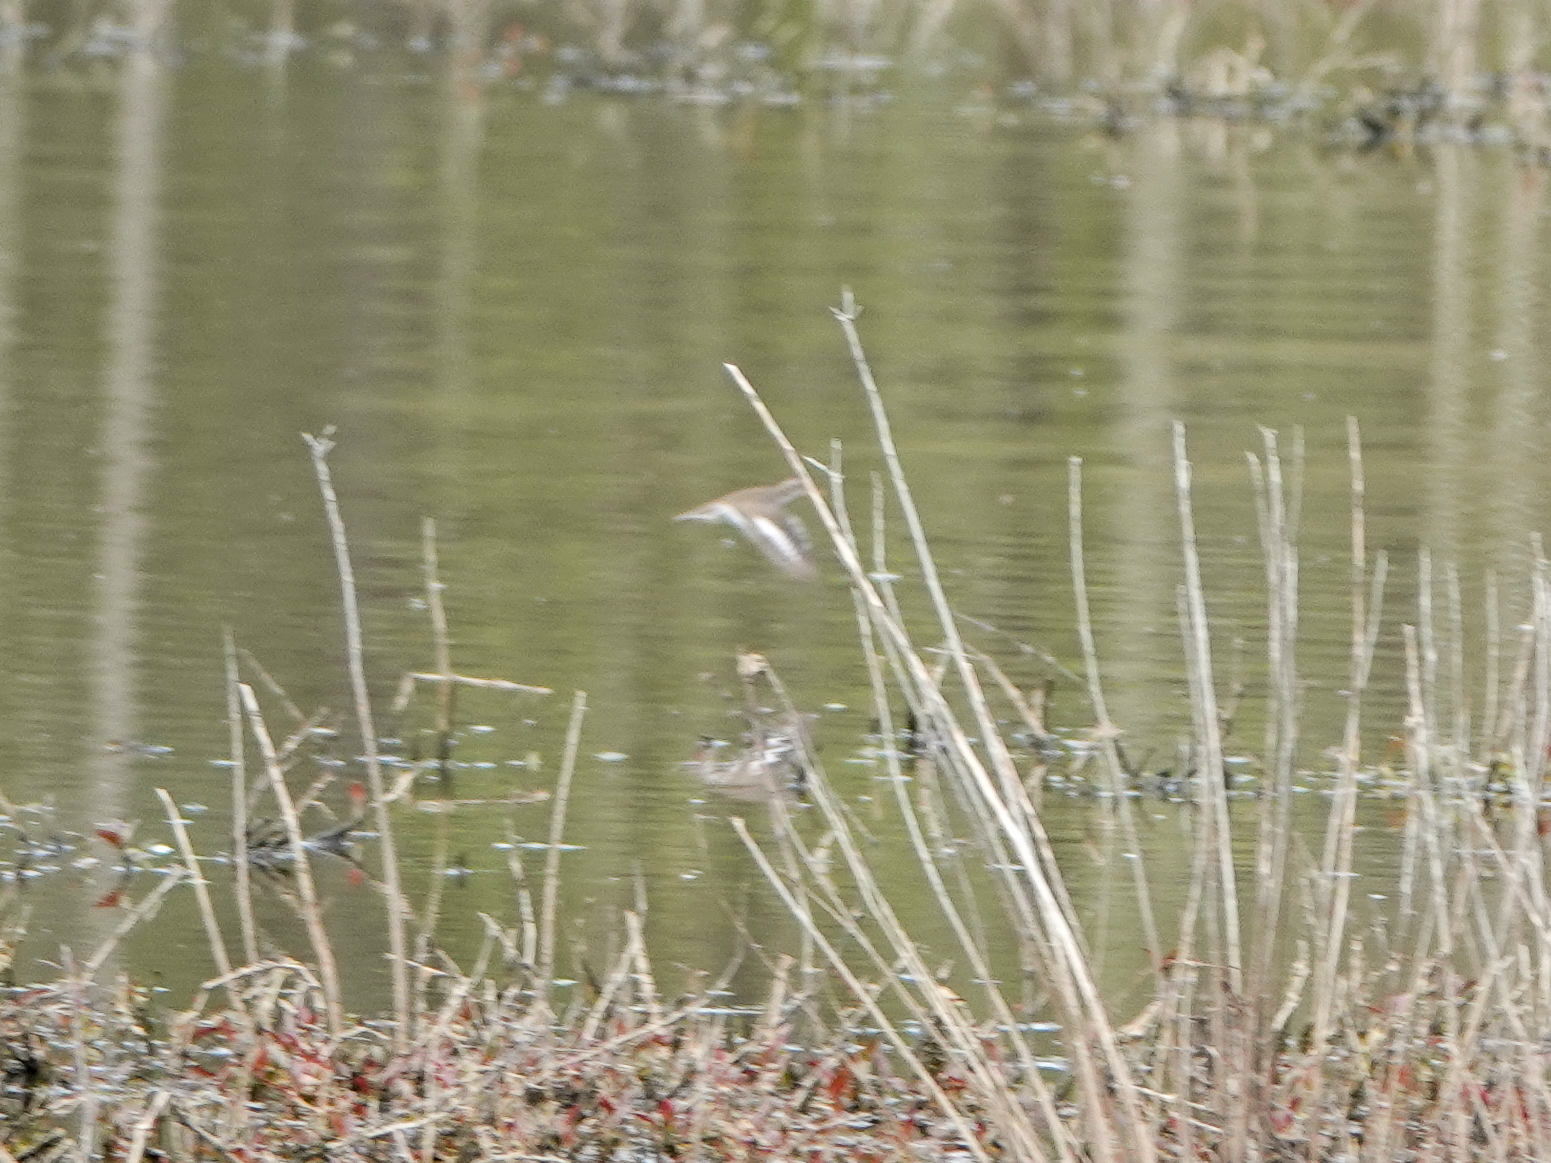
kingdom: Animalia
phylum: Chordata
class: Aves
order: Charadriiformes
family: Scolopacidae
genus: Actitis
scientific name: Actitis macularius
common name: Spotted sandpiper
